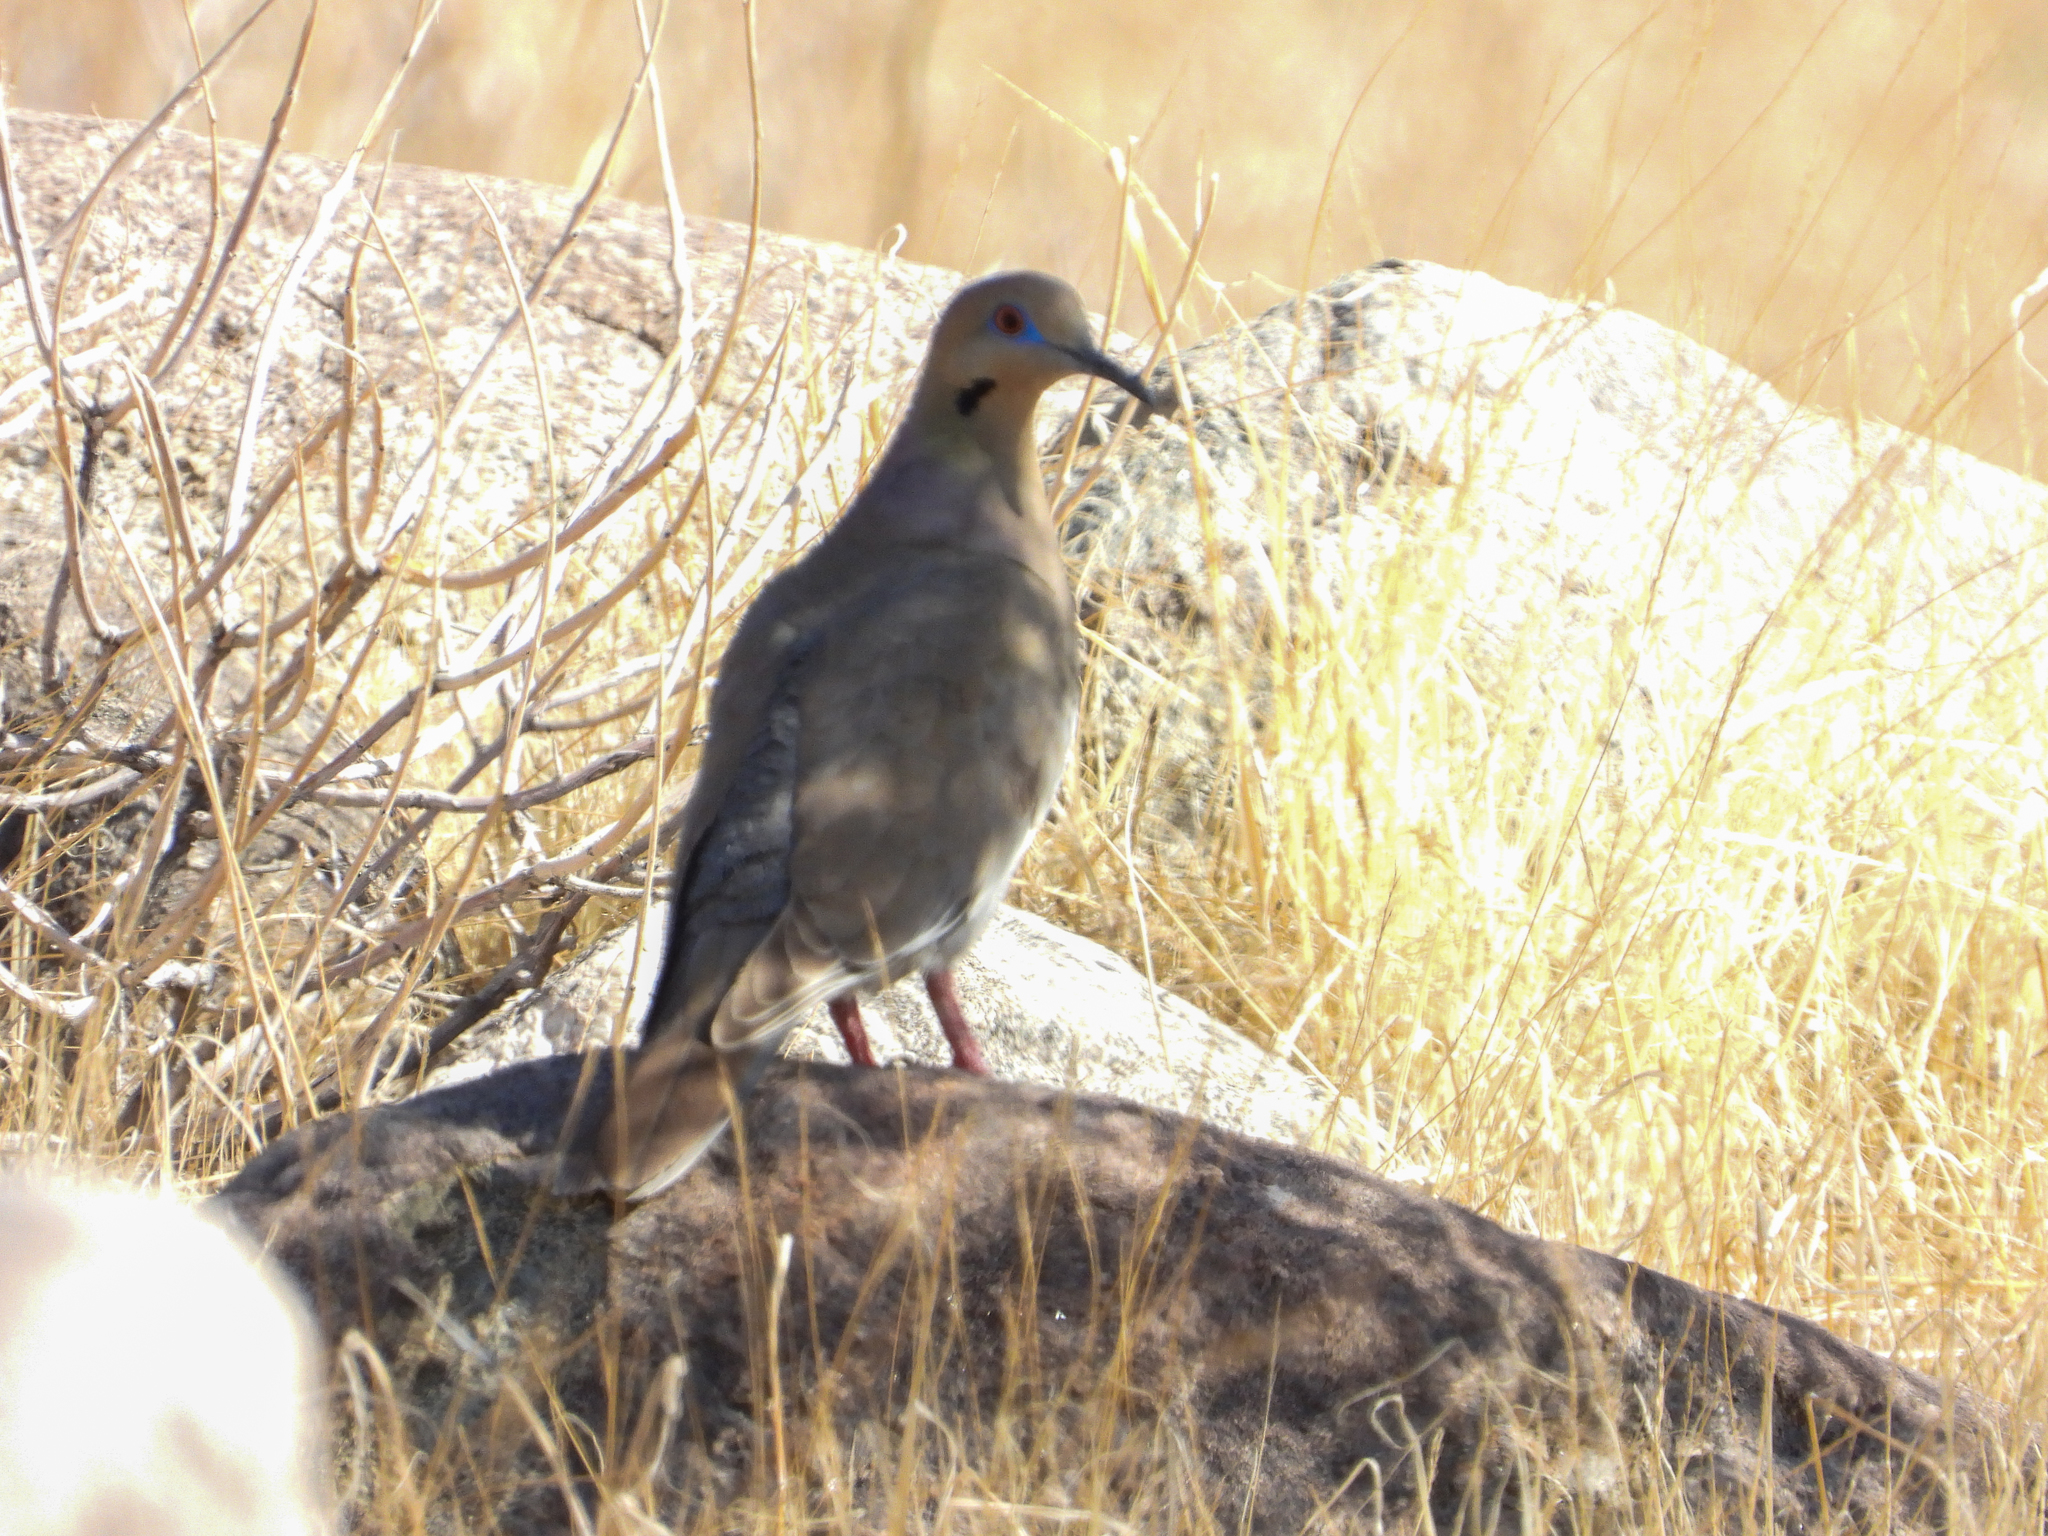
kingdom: Animalia
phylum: Chordata
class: Aves
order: Columbiformes
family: Columbidae
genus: Zenaida
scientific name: Zenaida asiatica
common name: White-winged dove
